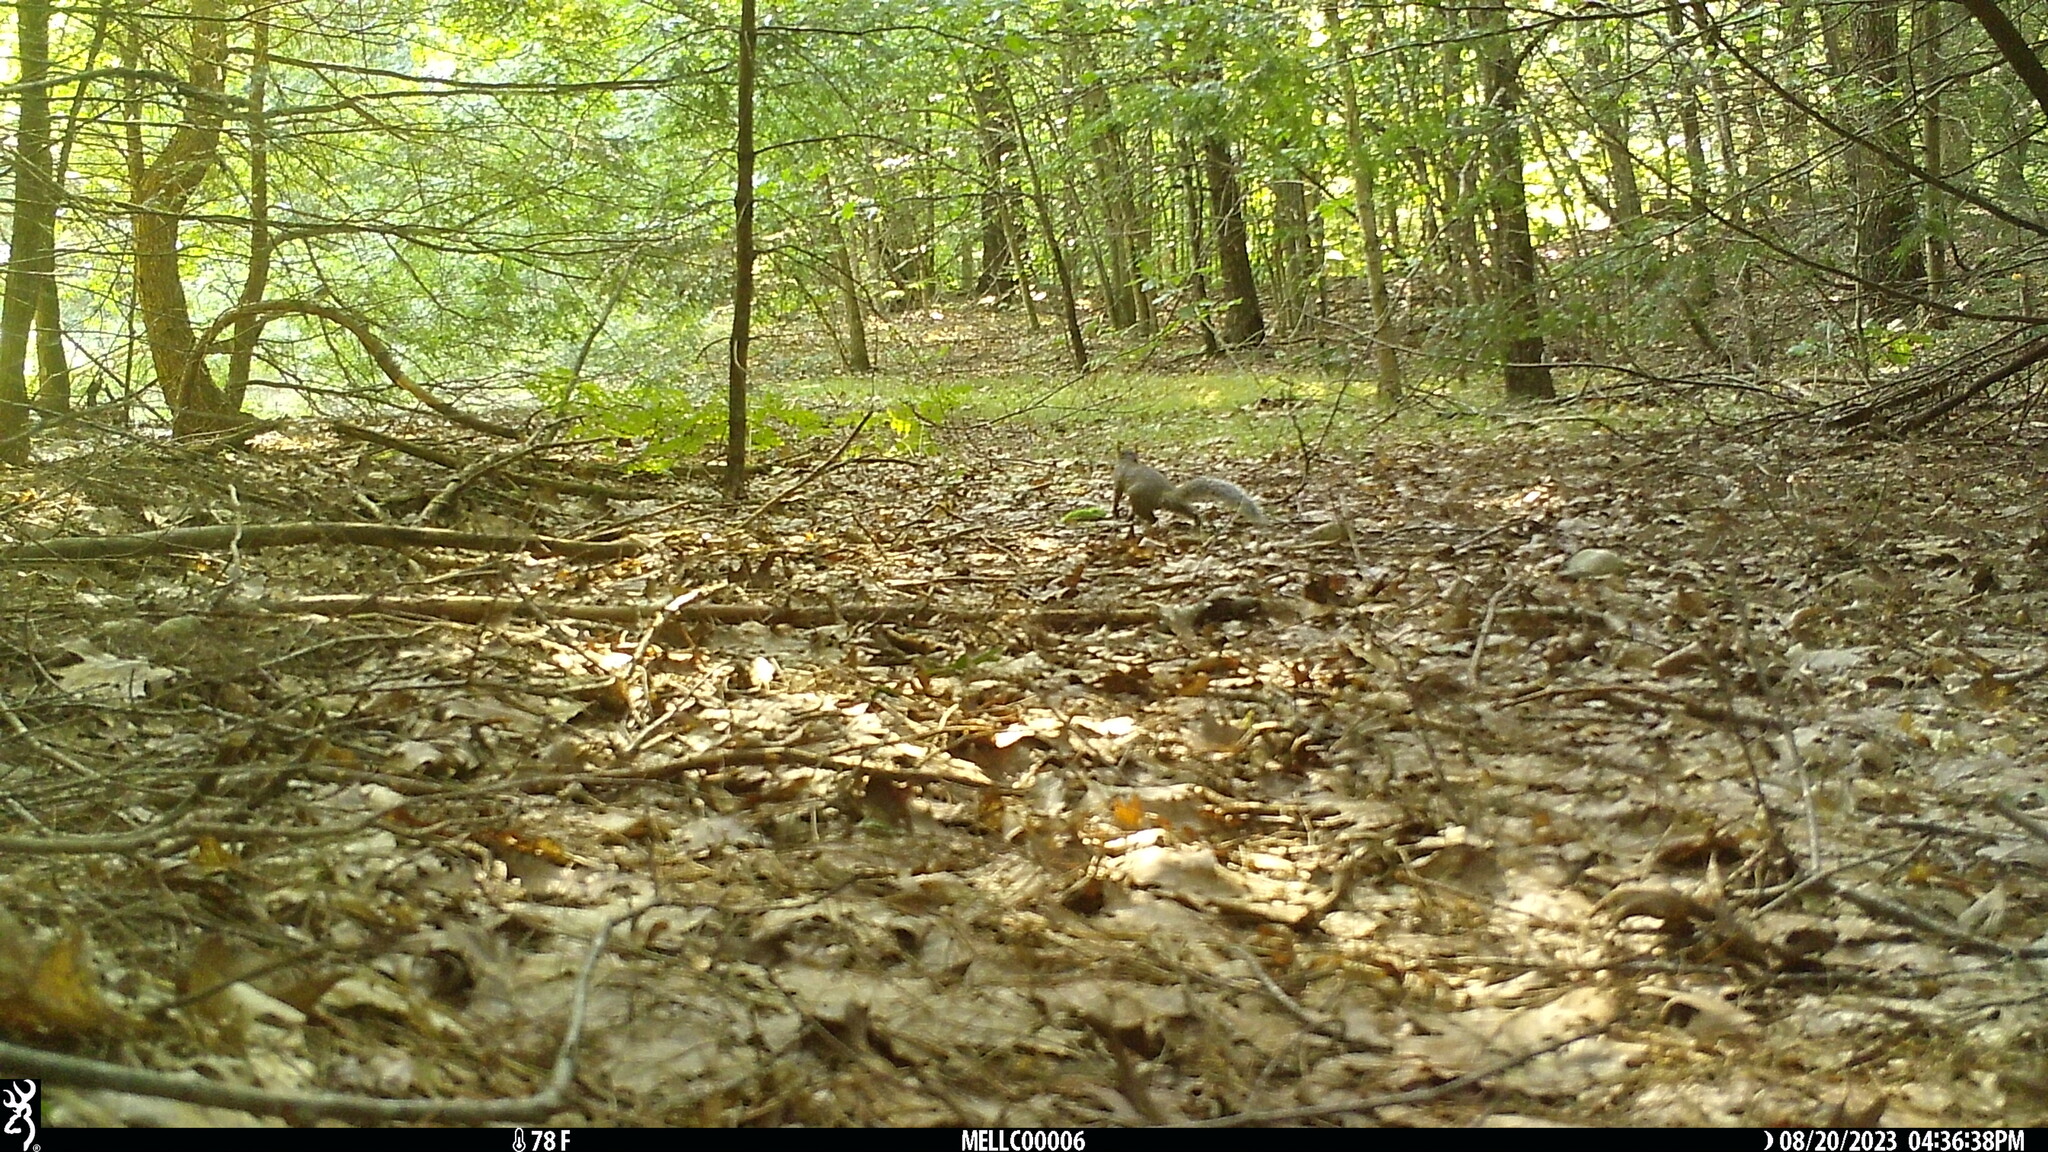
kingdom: Animalia
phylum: Chordata
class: Mammalia
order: Rodentia
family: Sciuridae
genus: Sciurus
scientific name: Sciurus carolinensis
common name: Eastern gray squirrel
